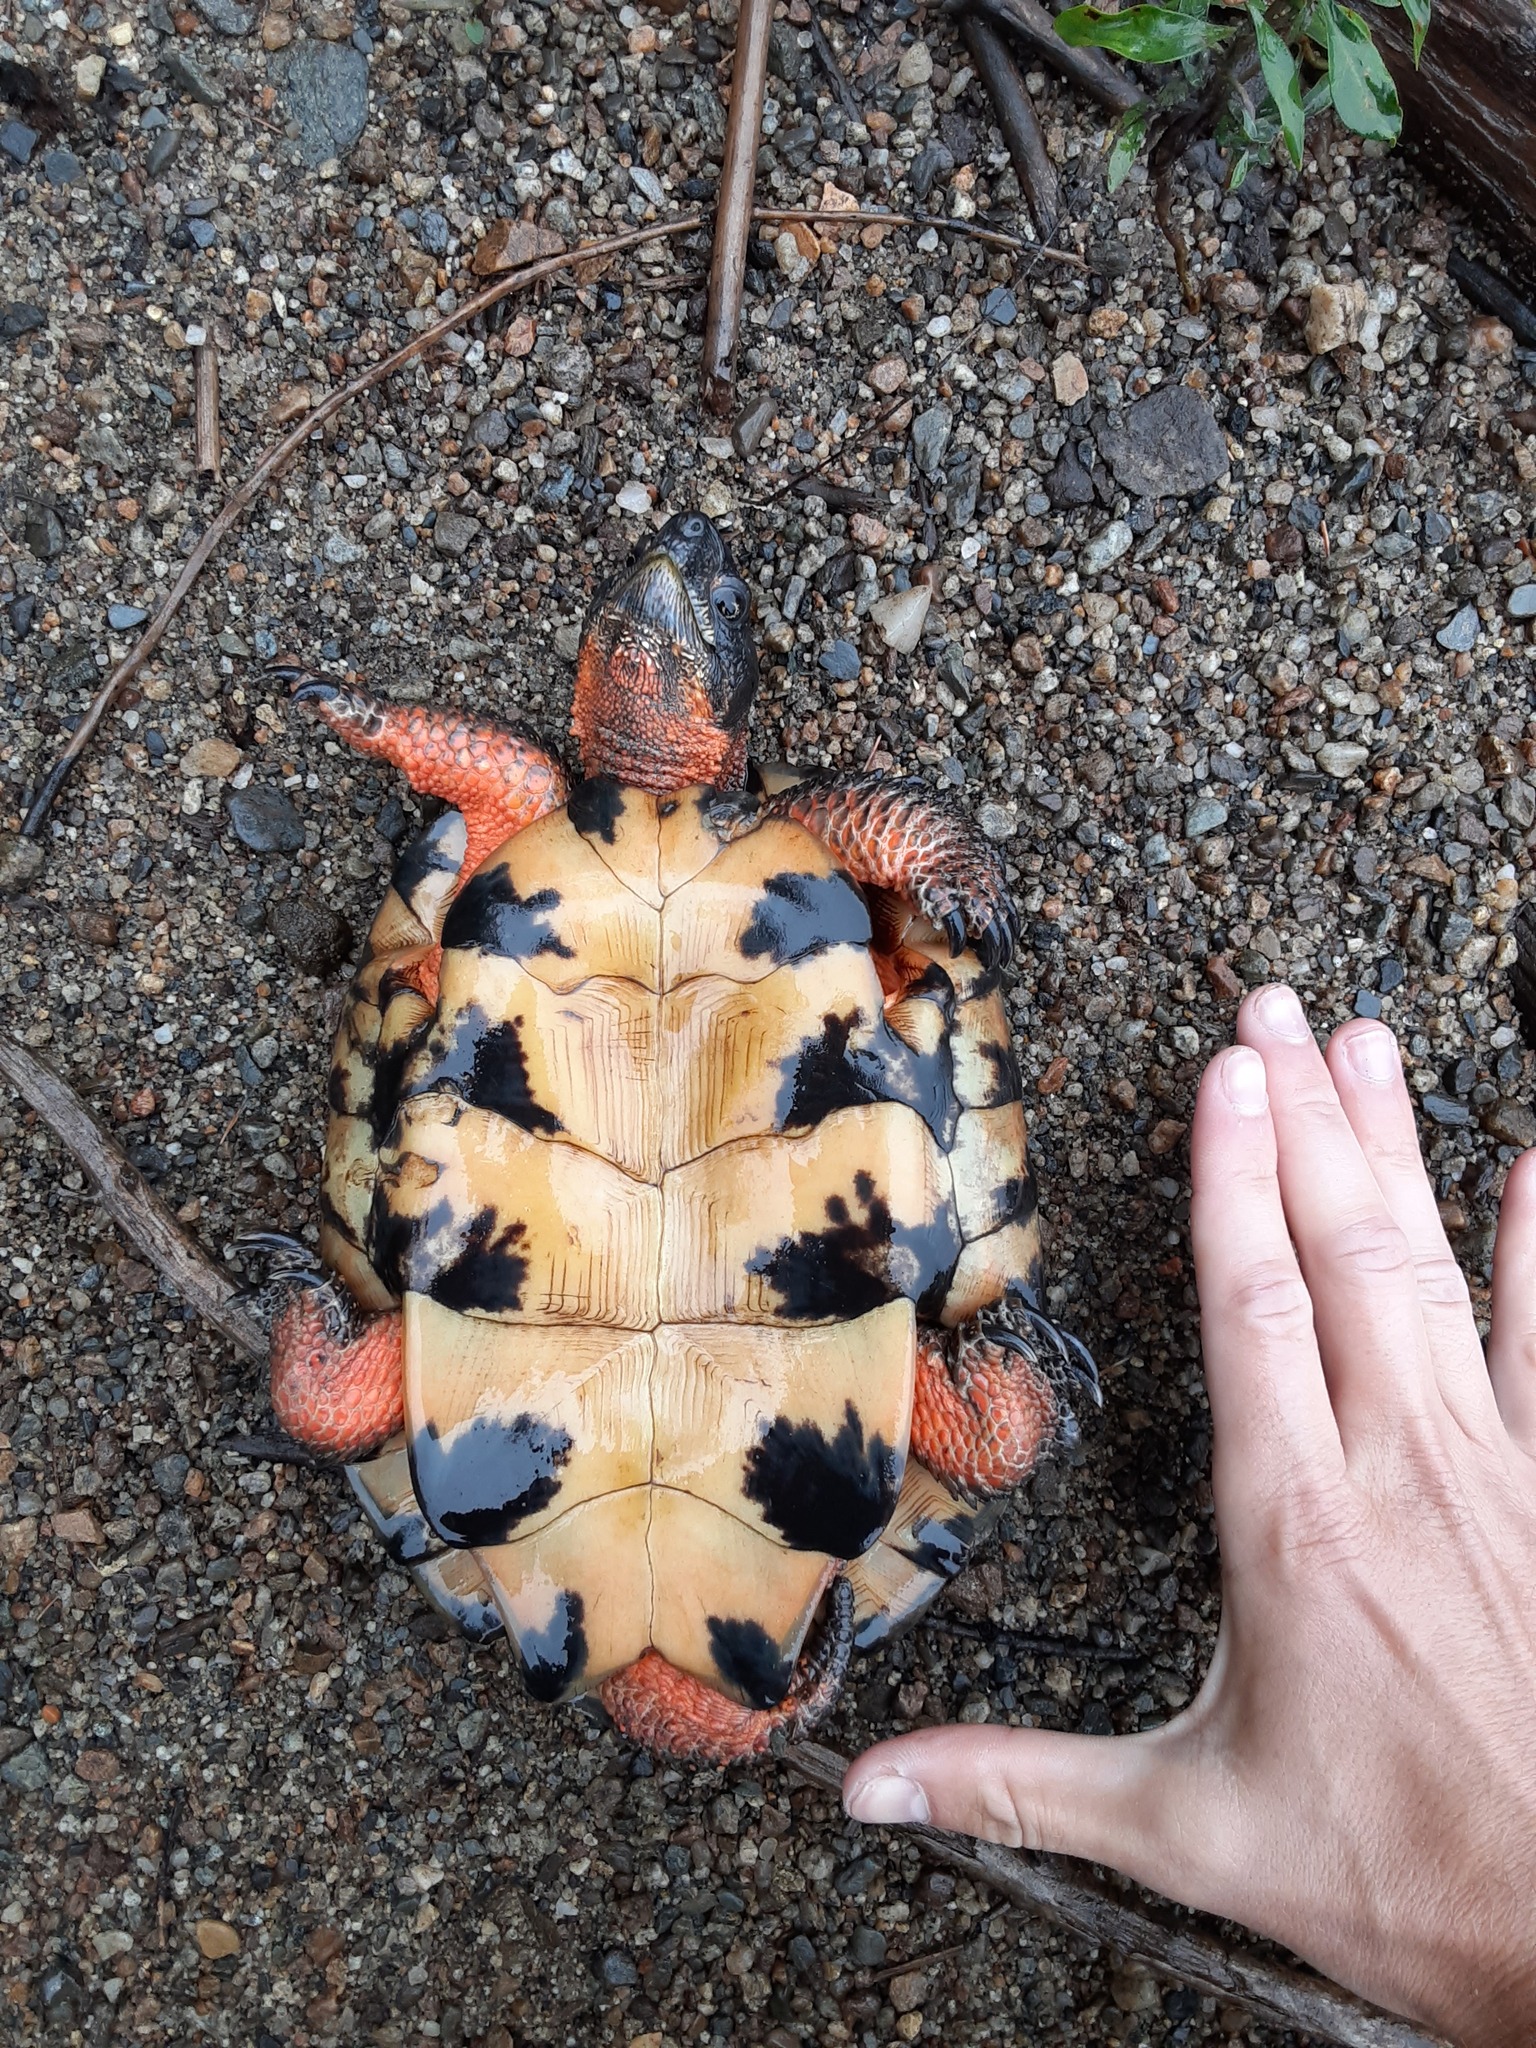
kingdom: Animalia
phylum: Chordata
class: Testudines
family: Emydidae
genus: Glyptemys
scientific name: Glyptemys insculpta
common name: Wood turtle
